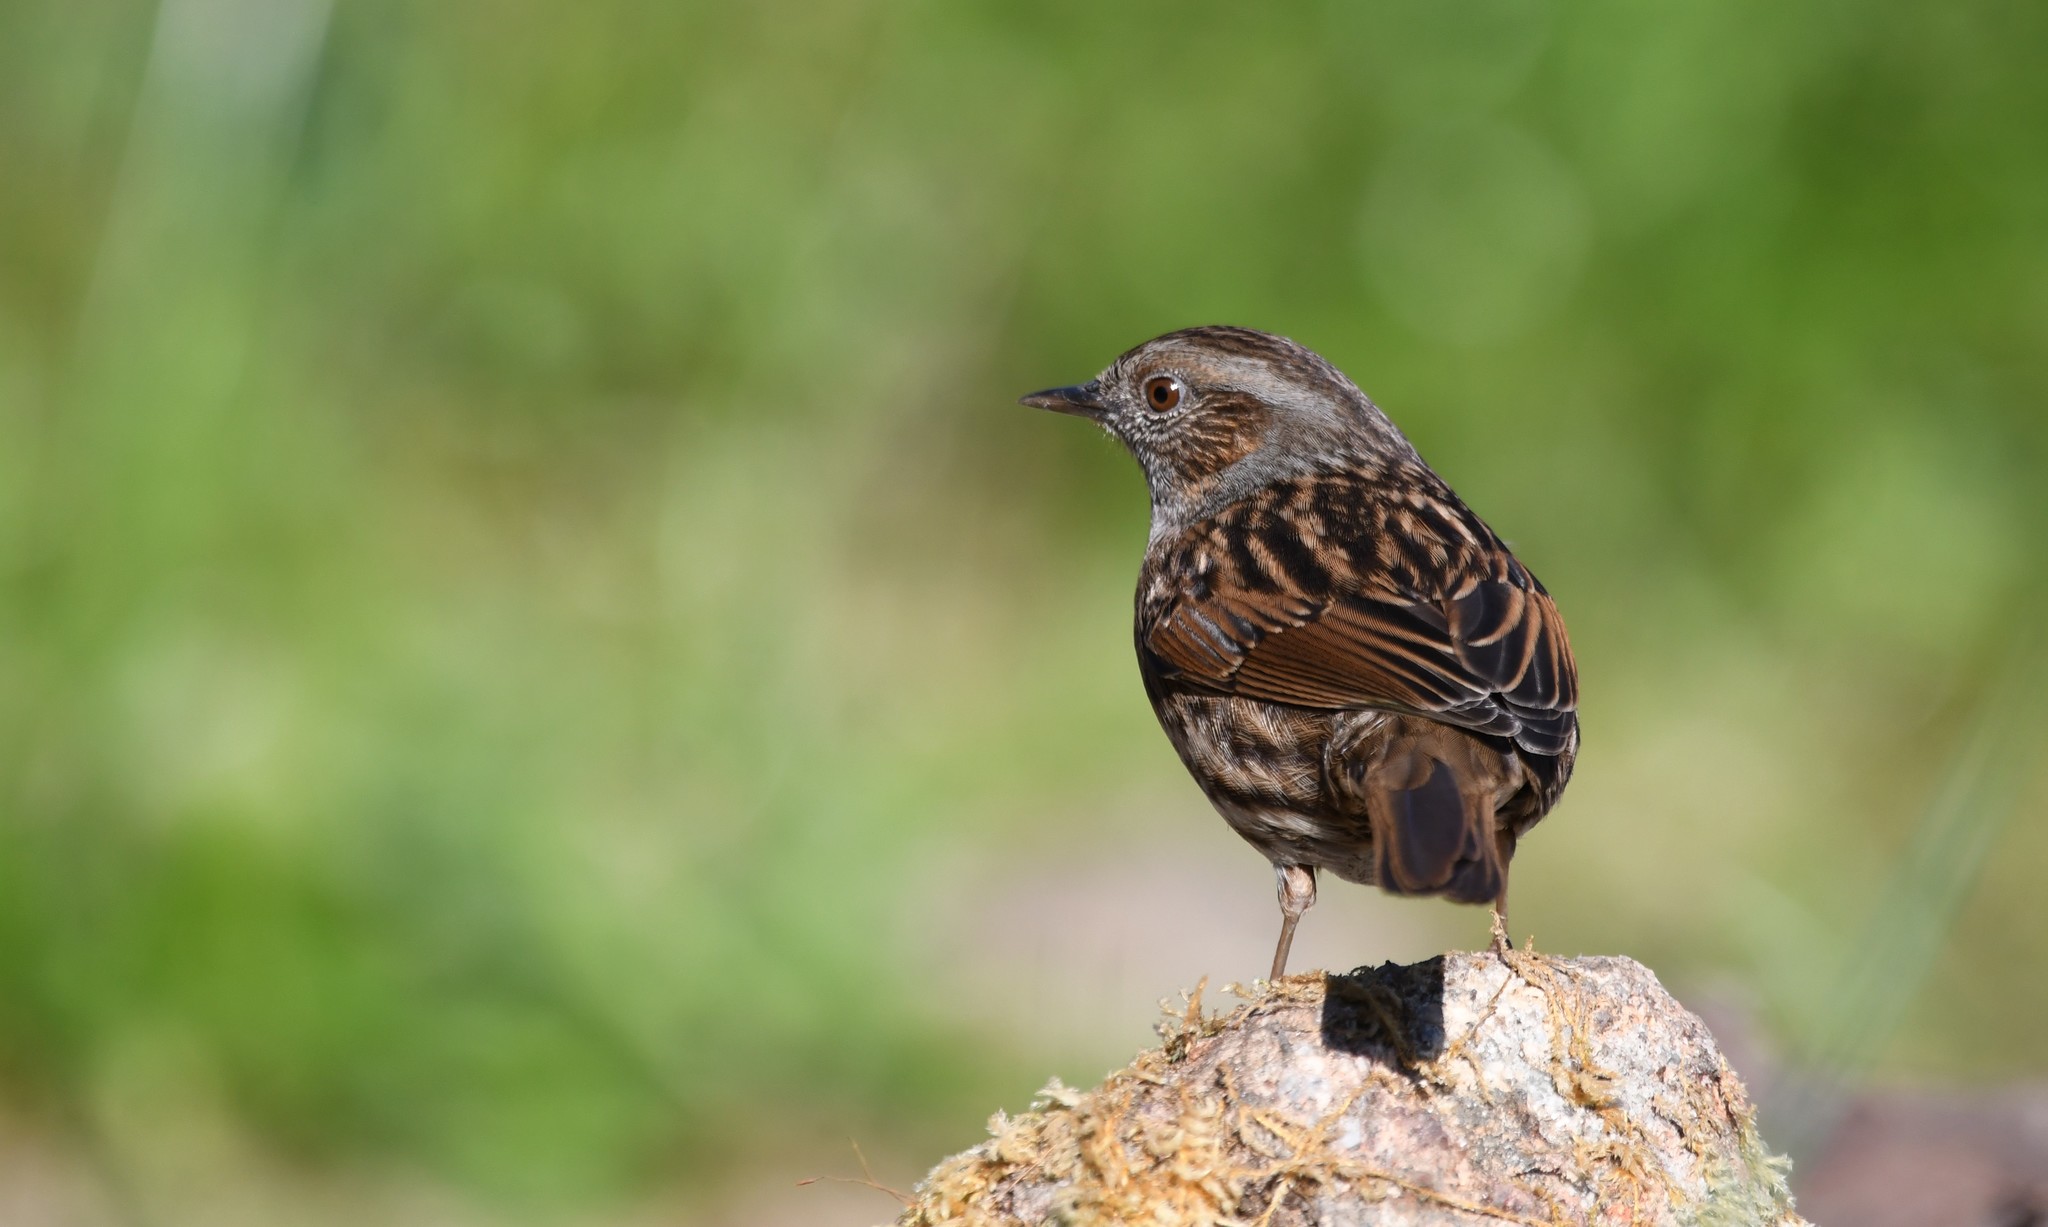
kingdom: Animalia
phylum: Chordata
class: Aves
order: Passeriformes
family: Prunellidae
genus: Prunella
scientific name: Prunella modularis
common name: Dunnock
